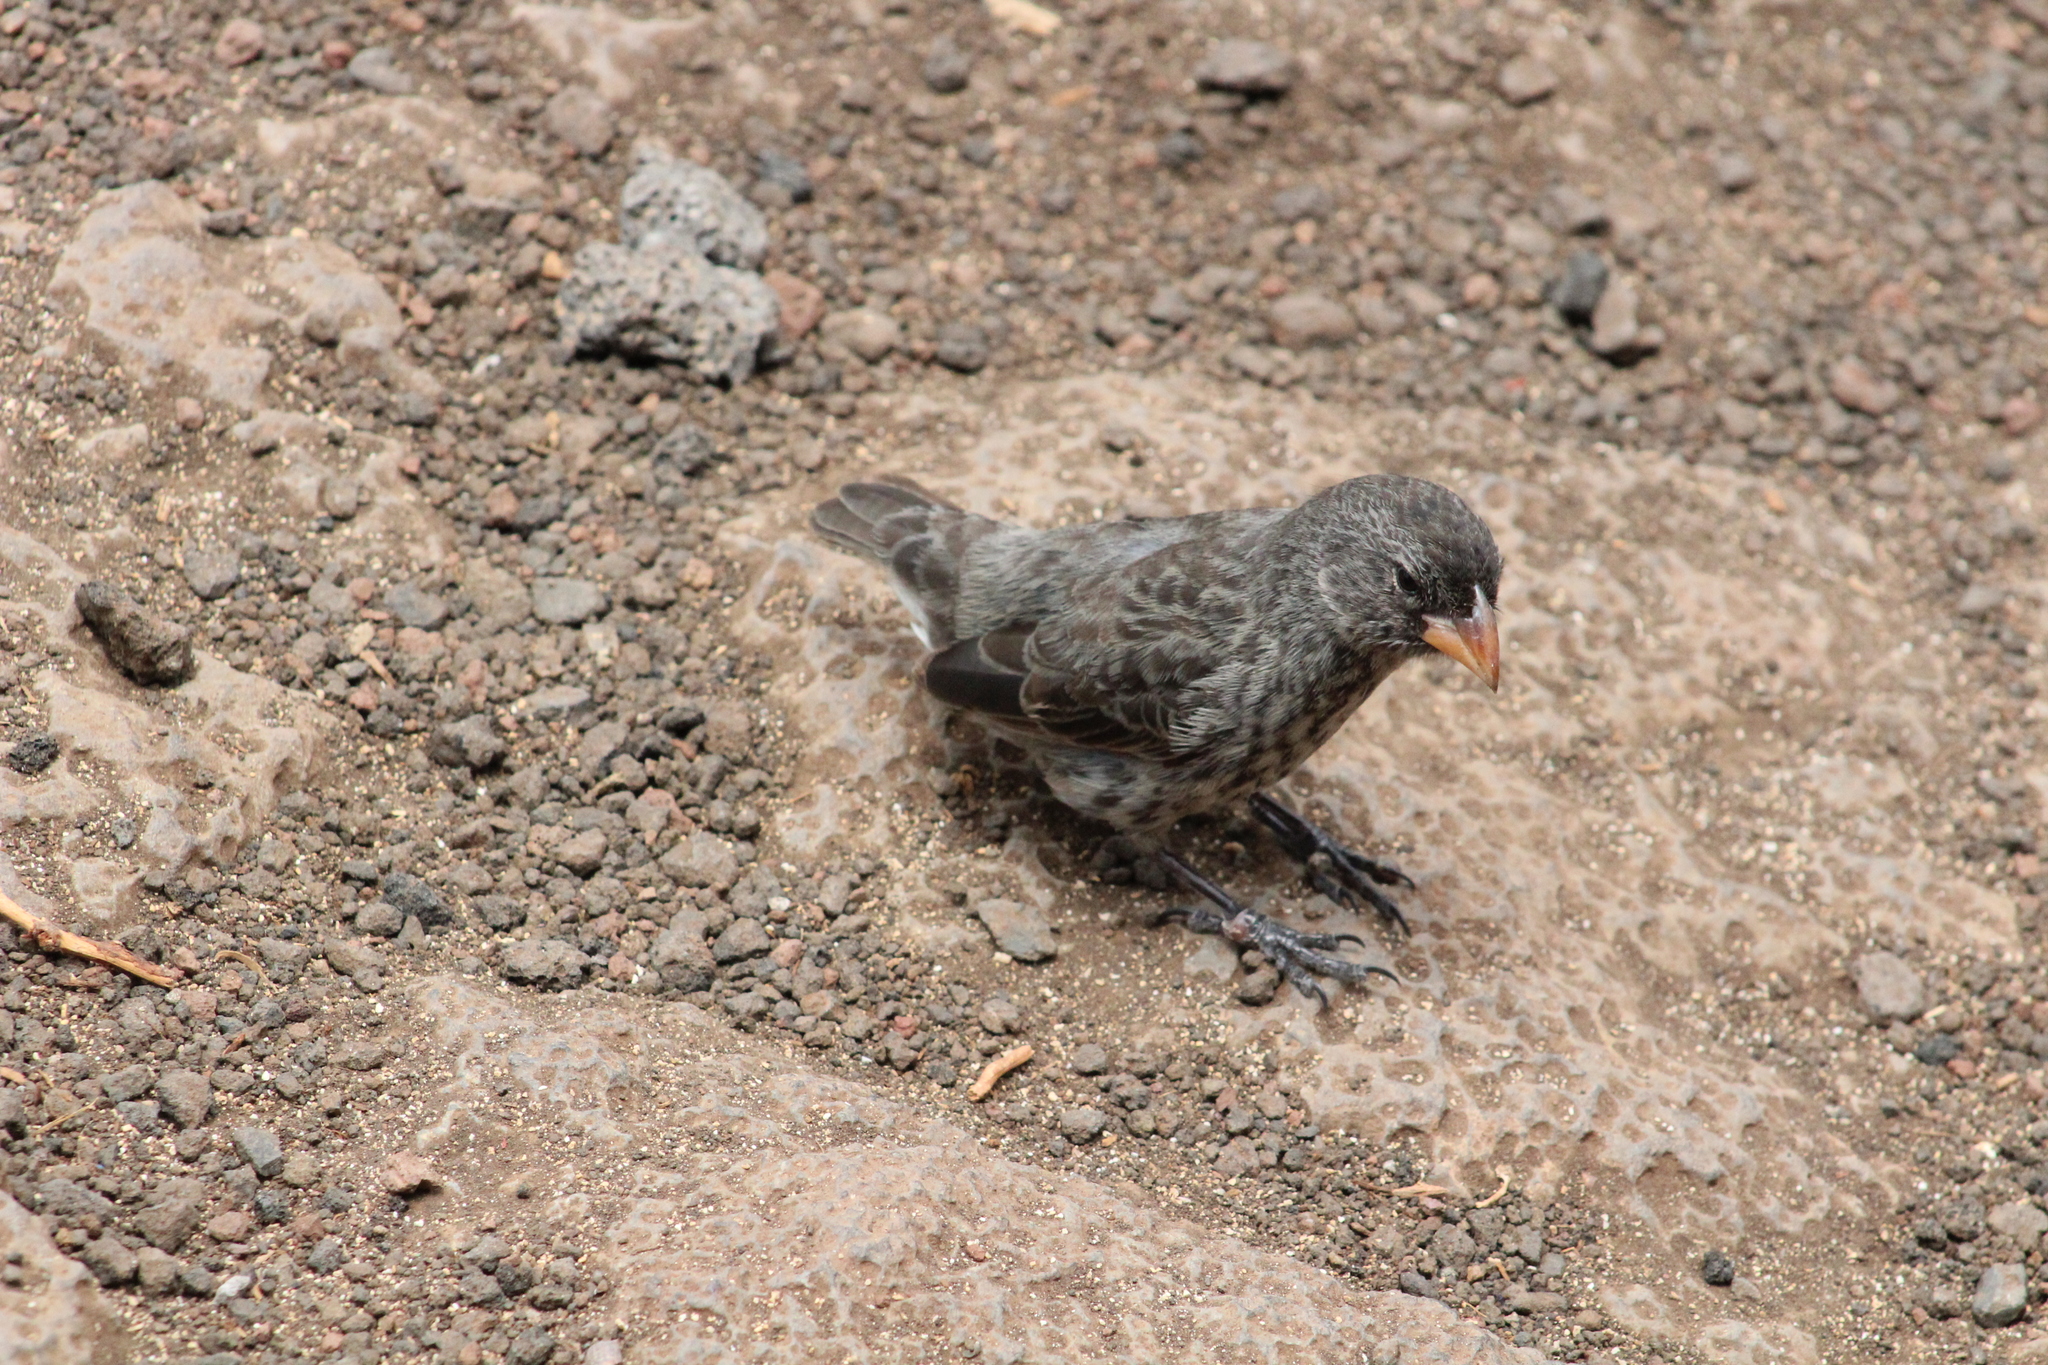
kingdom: Animalia
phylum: Chordata
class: Aves
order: Passeriformes
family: Thraupidae
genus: Geospiza
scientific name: Geospiza fortis
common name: Medium ground finch
